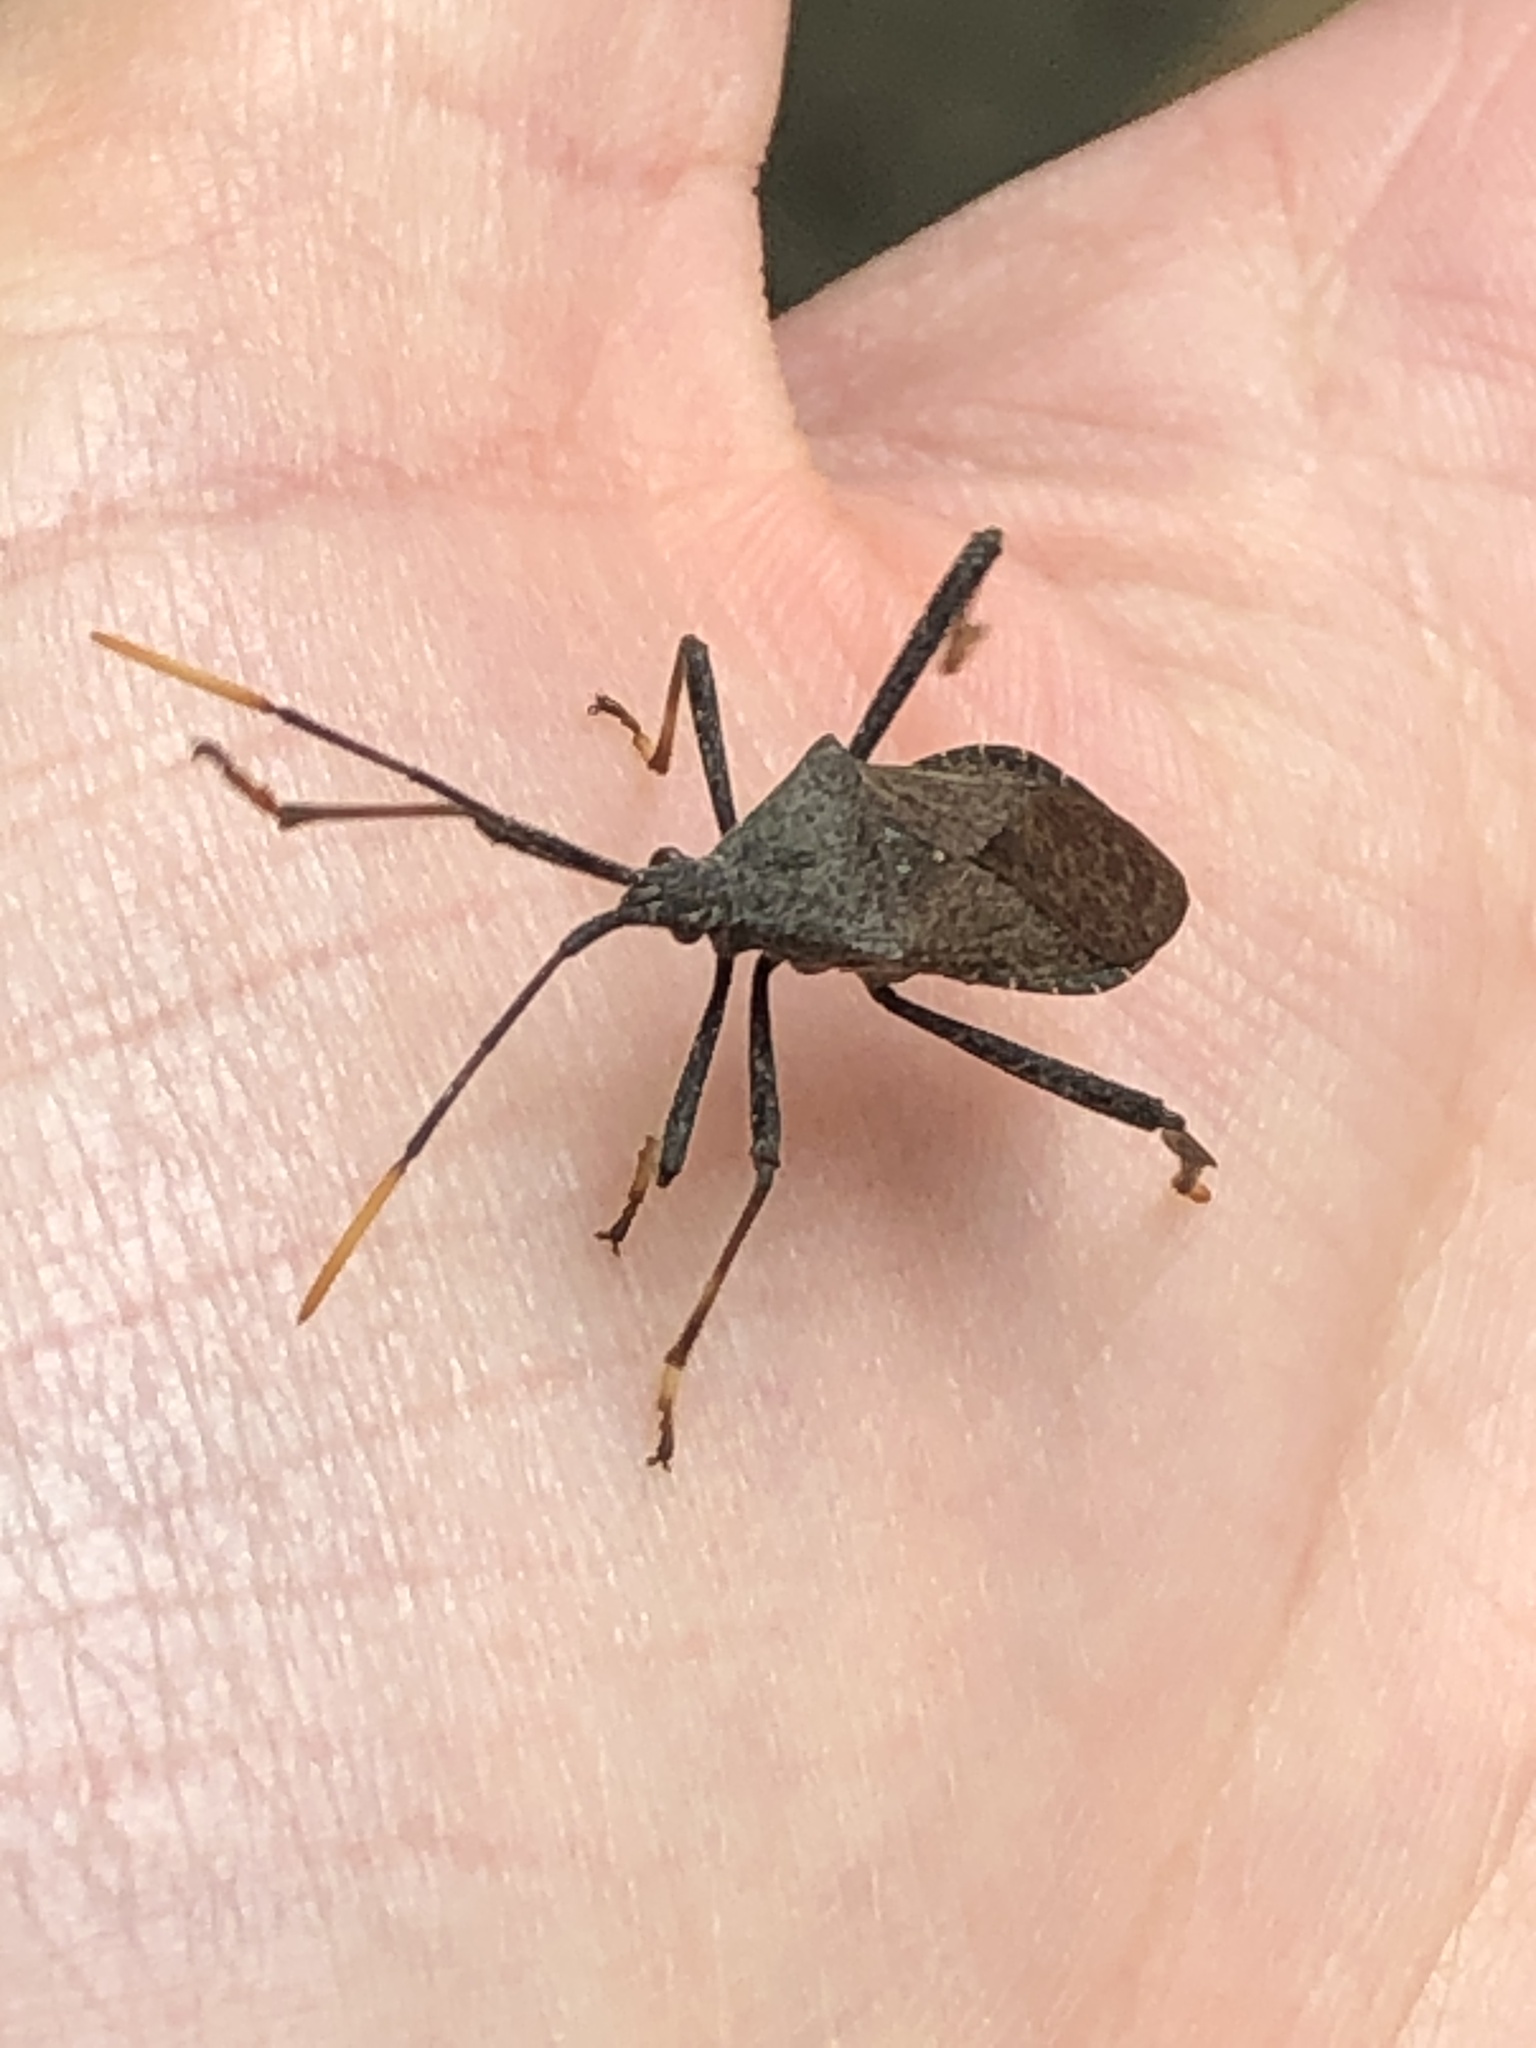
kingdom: Animalia
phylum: Arthropoda
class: Insecta
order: Hemiptera
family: Coreidae
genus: Acanthocephala
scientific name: Acanthocephala terminalis
